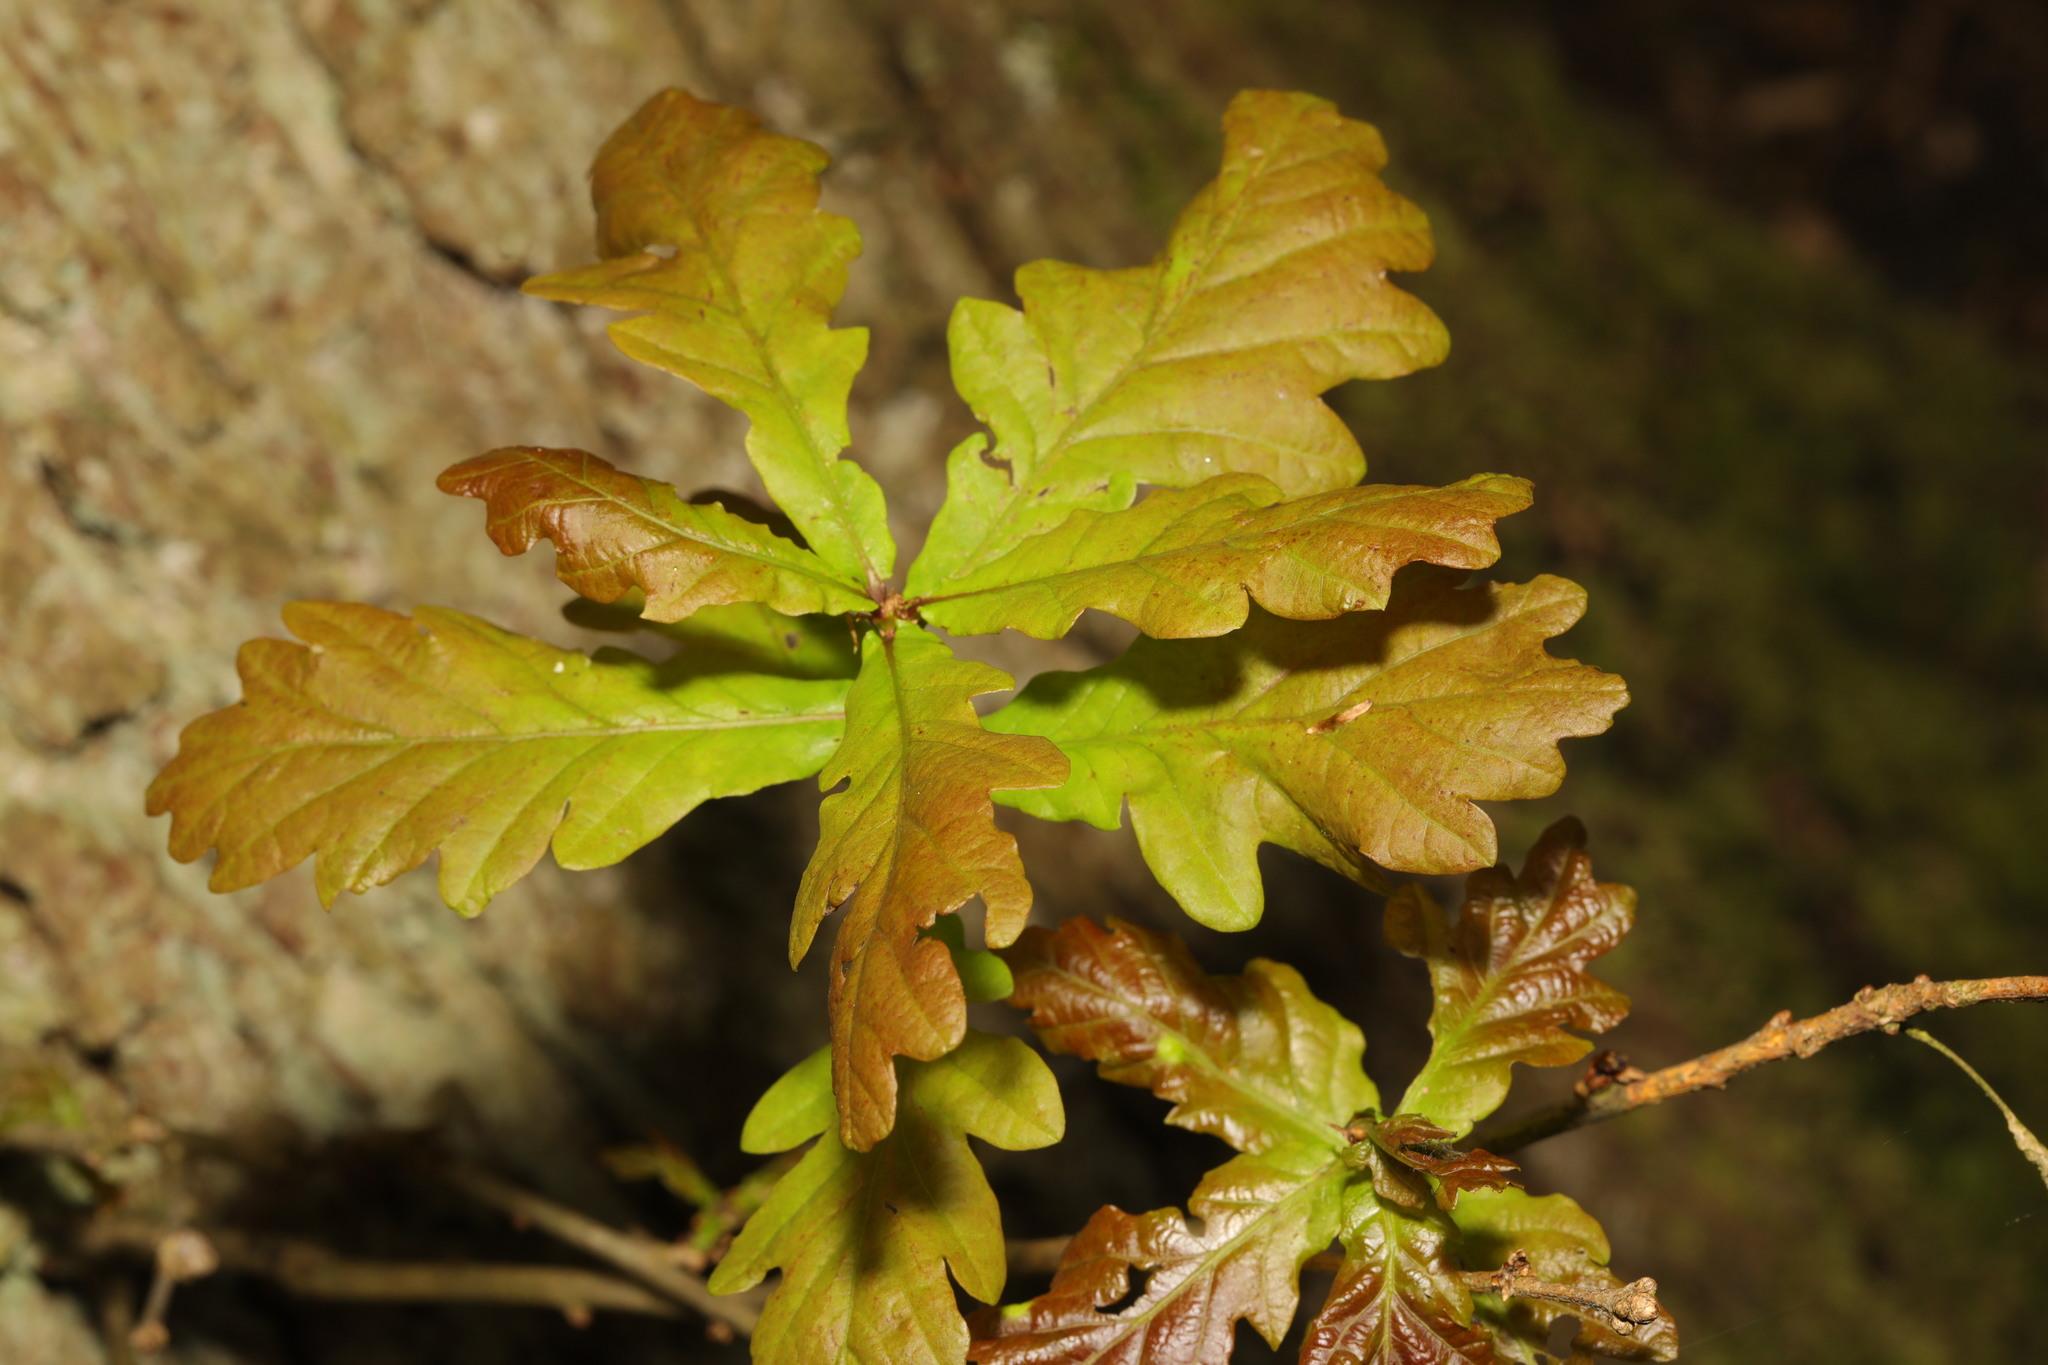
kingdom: Plantae
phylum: Tracheophyta
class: Magnoliopsida
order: Fagales
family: Fagaceae
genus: Quercus
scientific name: Quercus robur
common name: Pedunculate oak
